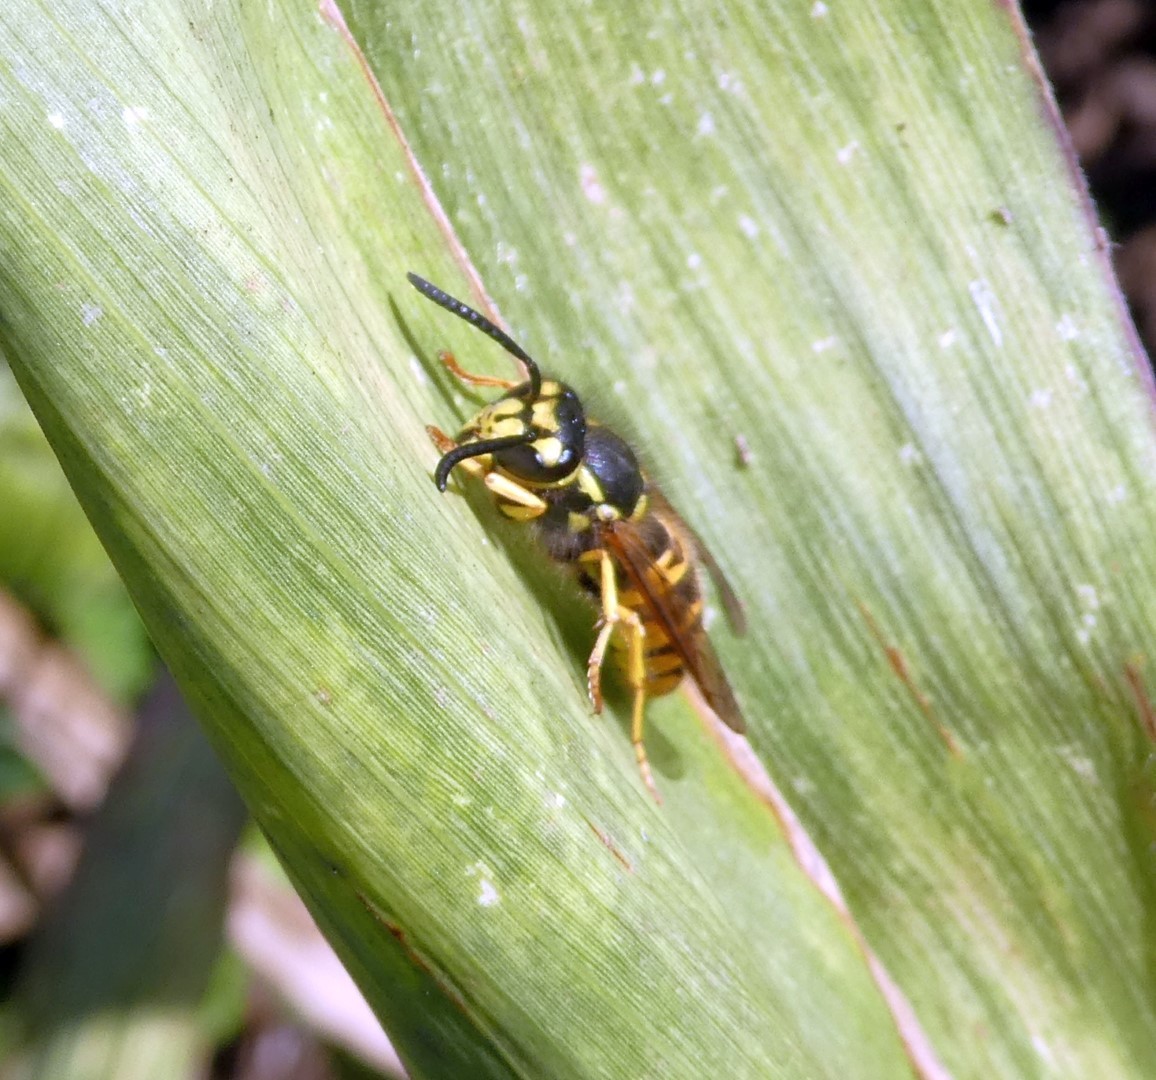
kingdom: Animalia
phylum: Arthropoda
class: Insecta
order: Hymenoptera
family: Vespidae
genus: Vespula
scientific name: Vespula germanica
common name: German wasp
